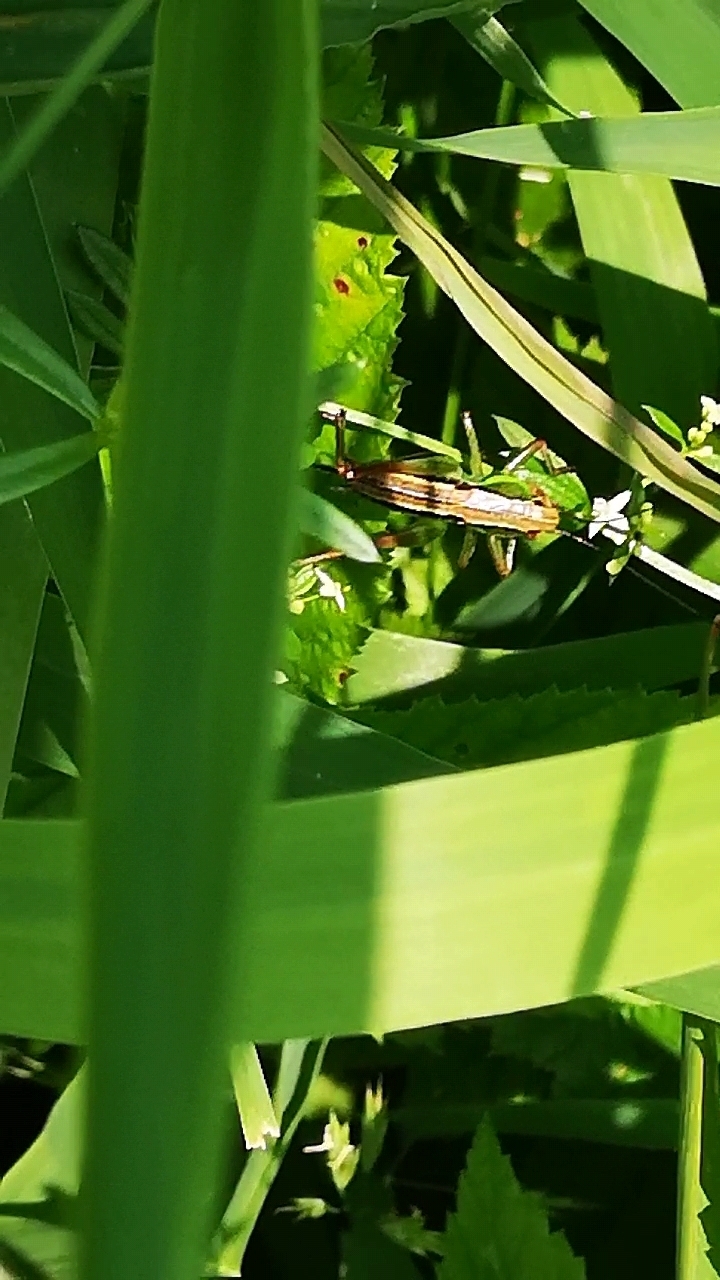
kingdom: Animalia
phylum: Arthropoda
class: Insecta
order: Orthoptera
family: Tettigoniidae
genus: Roeseliana
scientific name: Roeseliana roeselii
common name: Roesel's bush cricket
